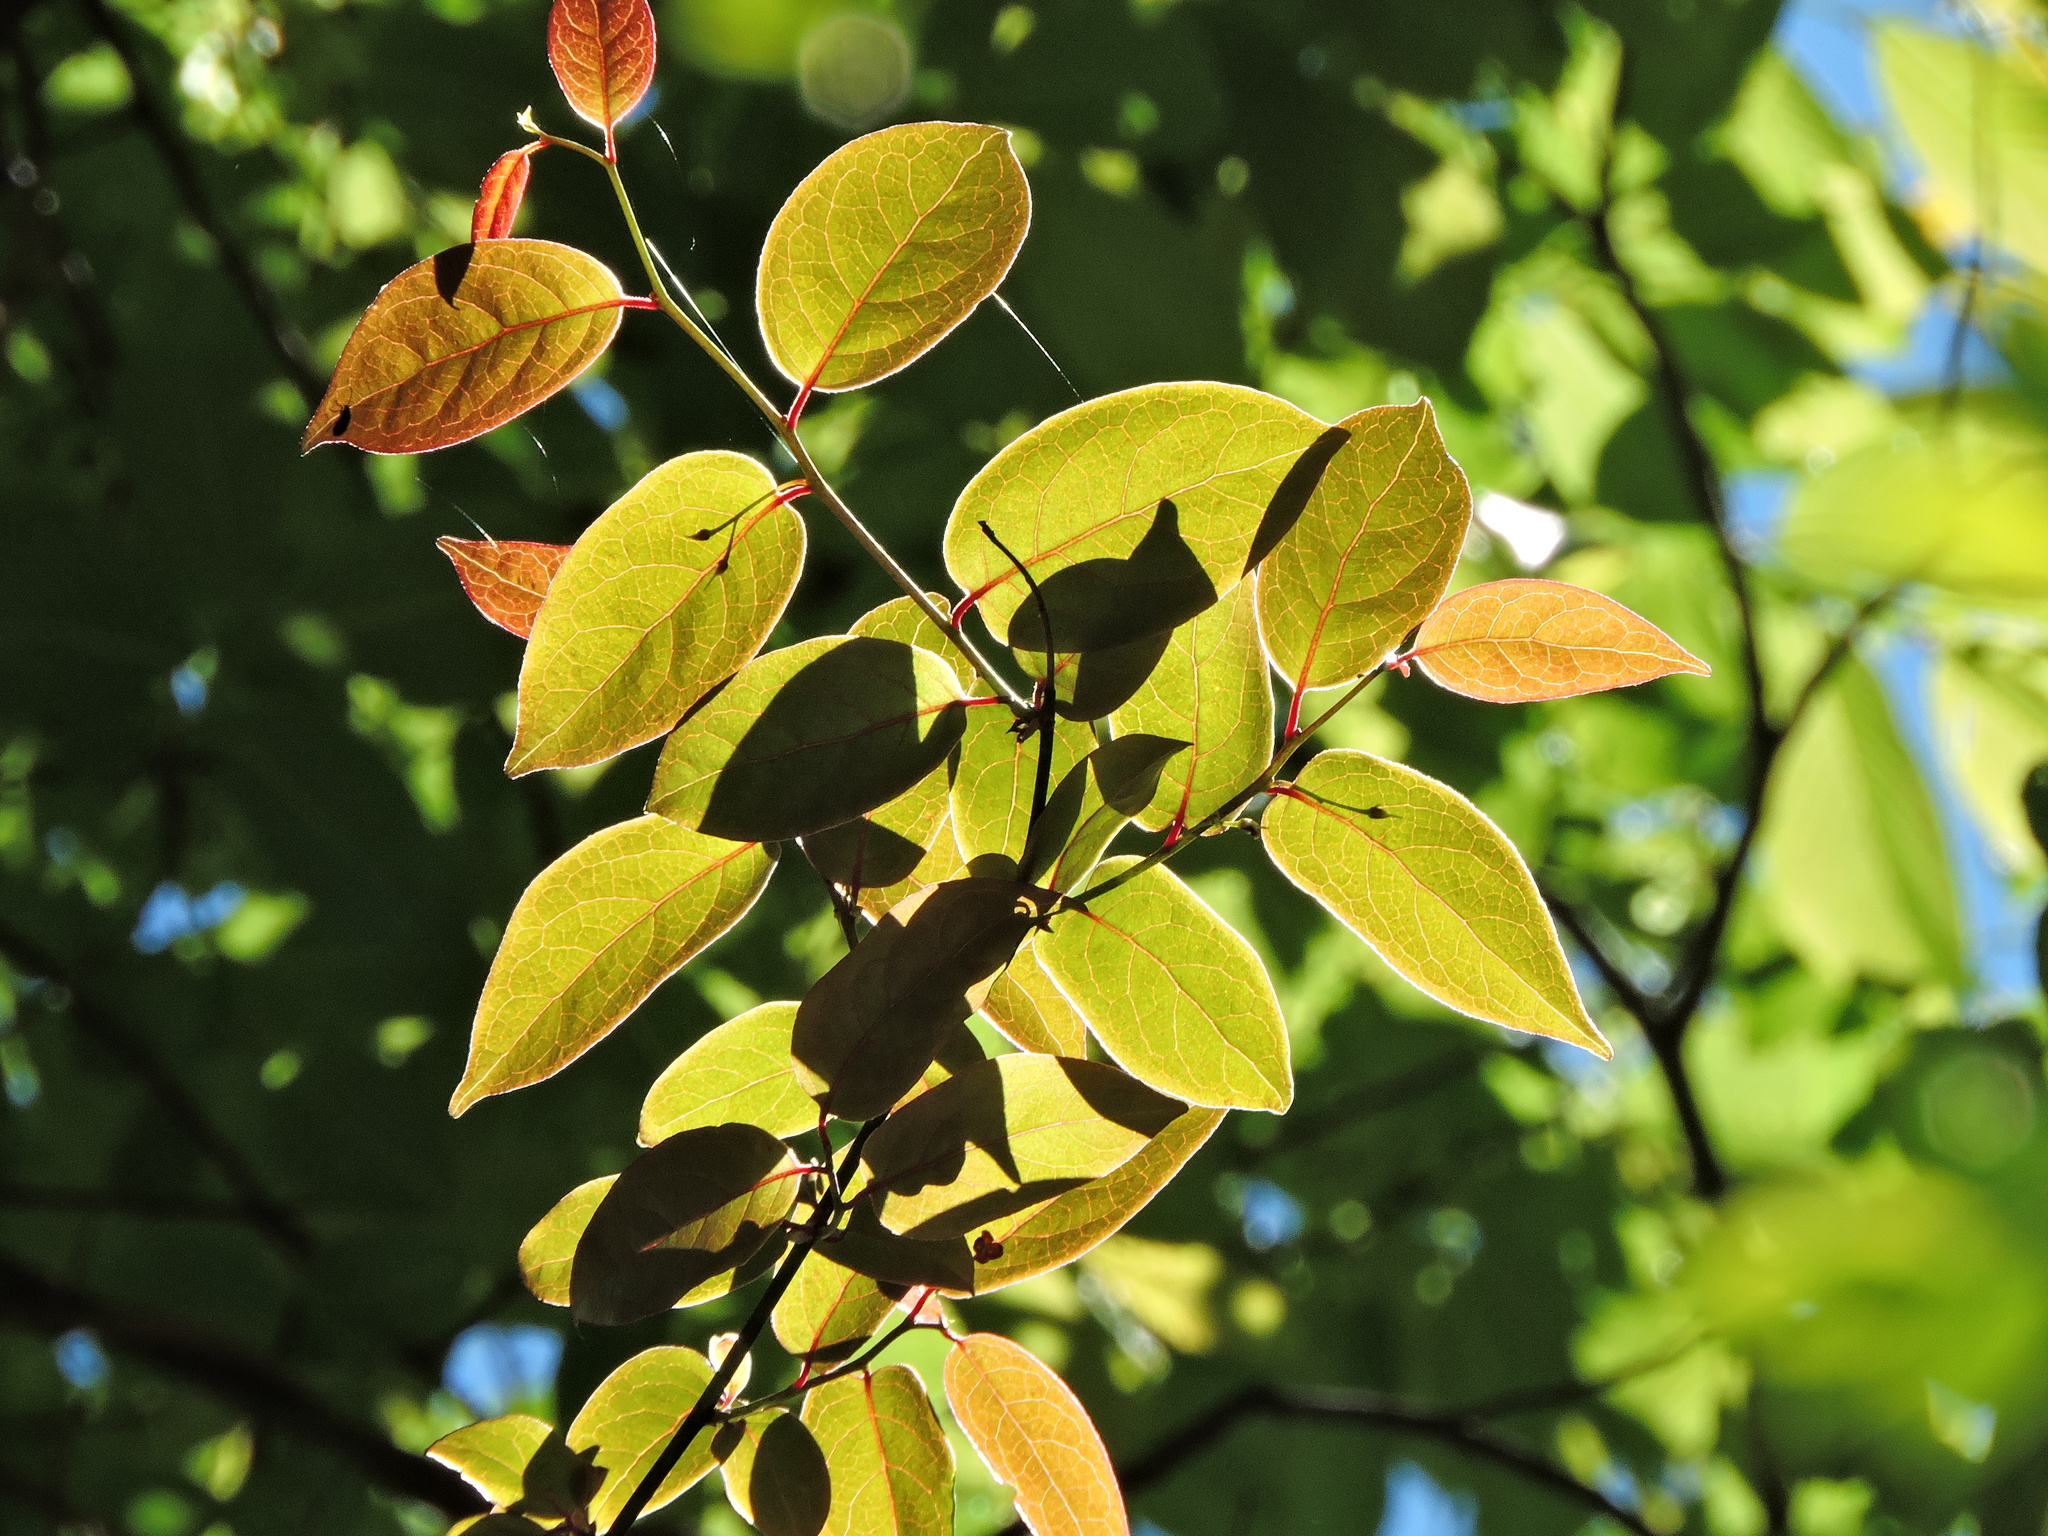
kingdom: Plantae
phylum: Tracheophyta
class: Magnoliopsida
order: Proteales
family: Sabiaceae
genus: Sabia
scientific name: Sabia transarisanensis
